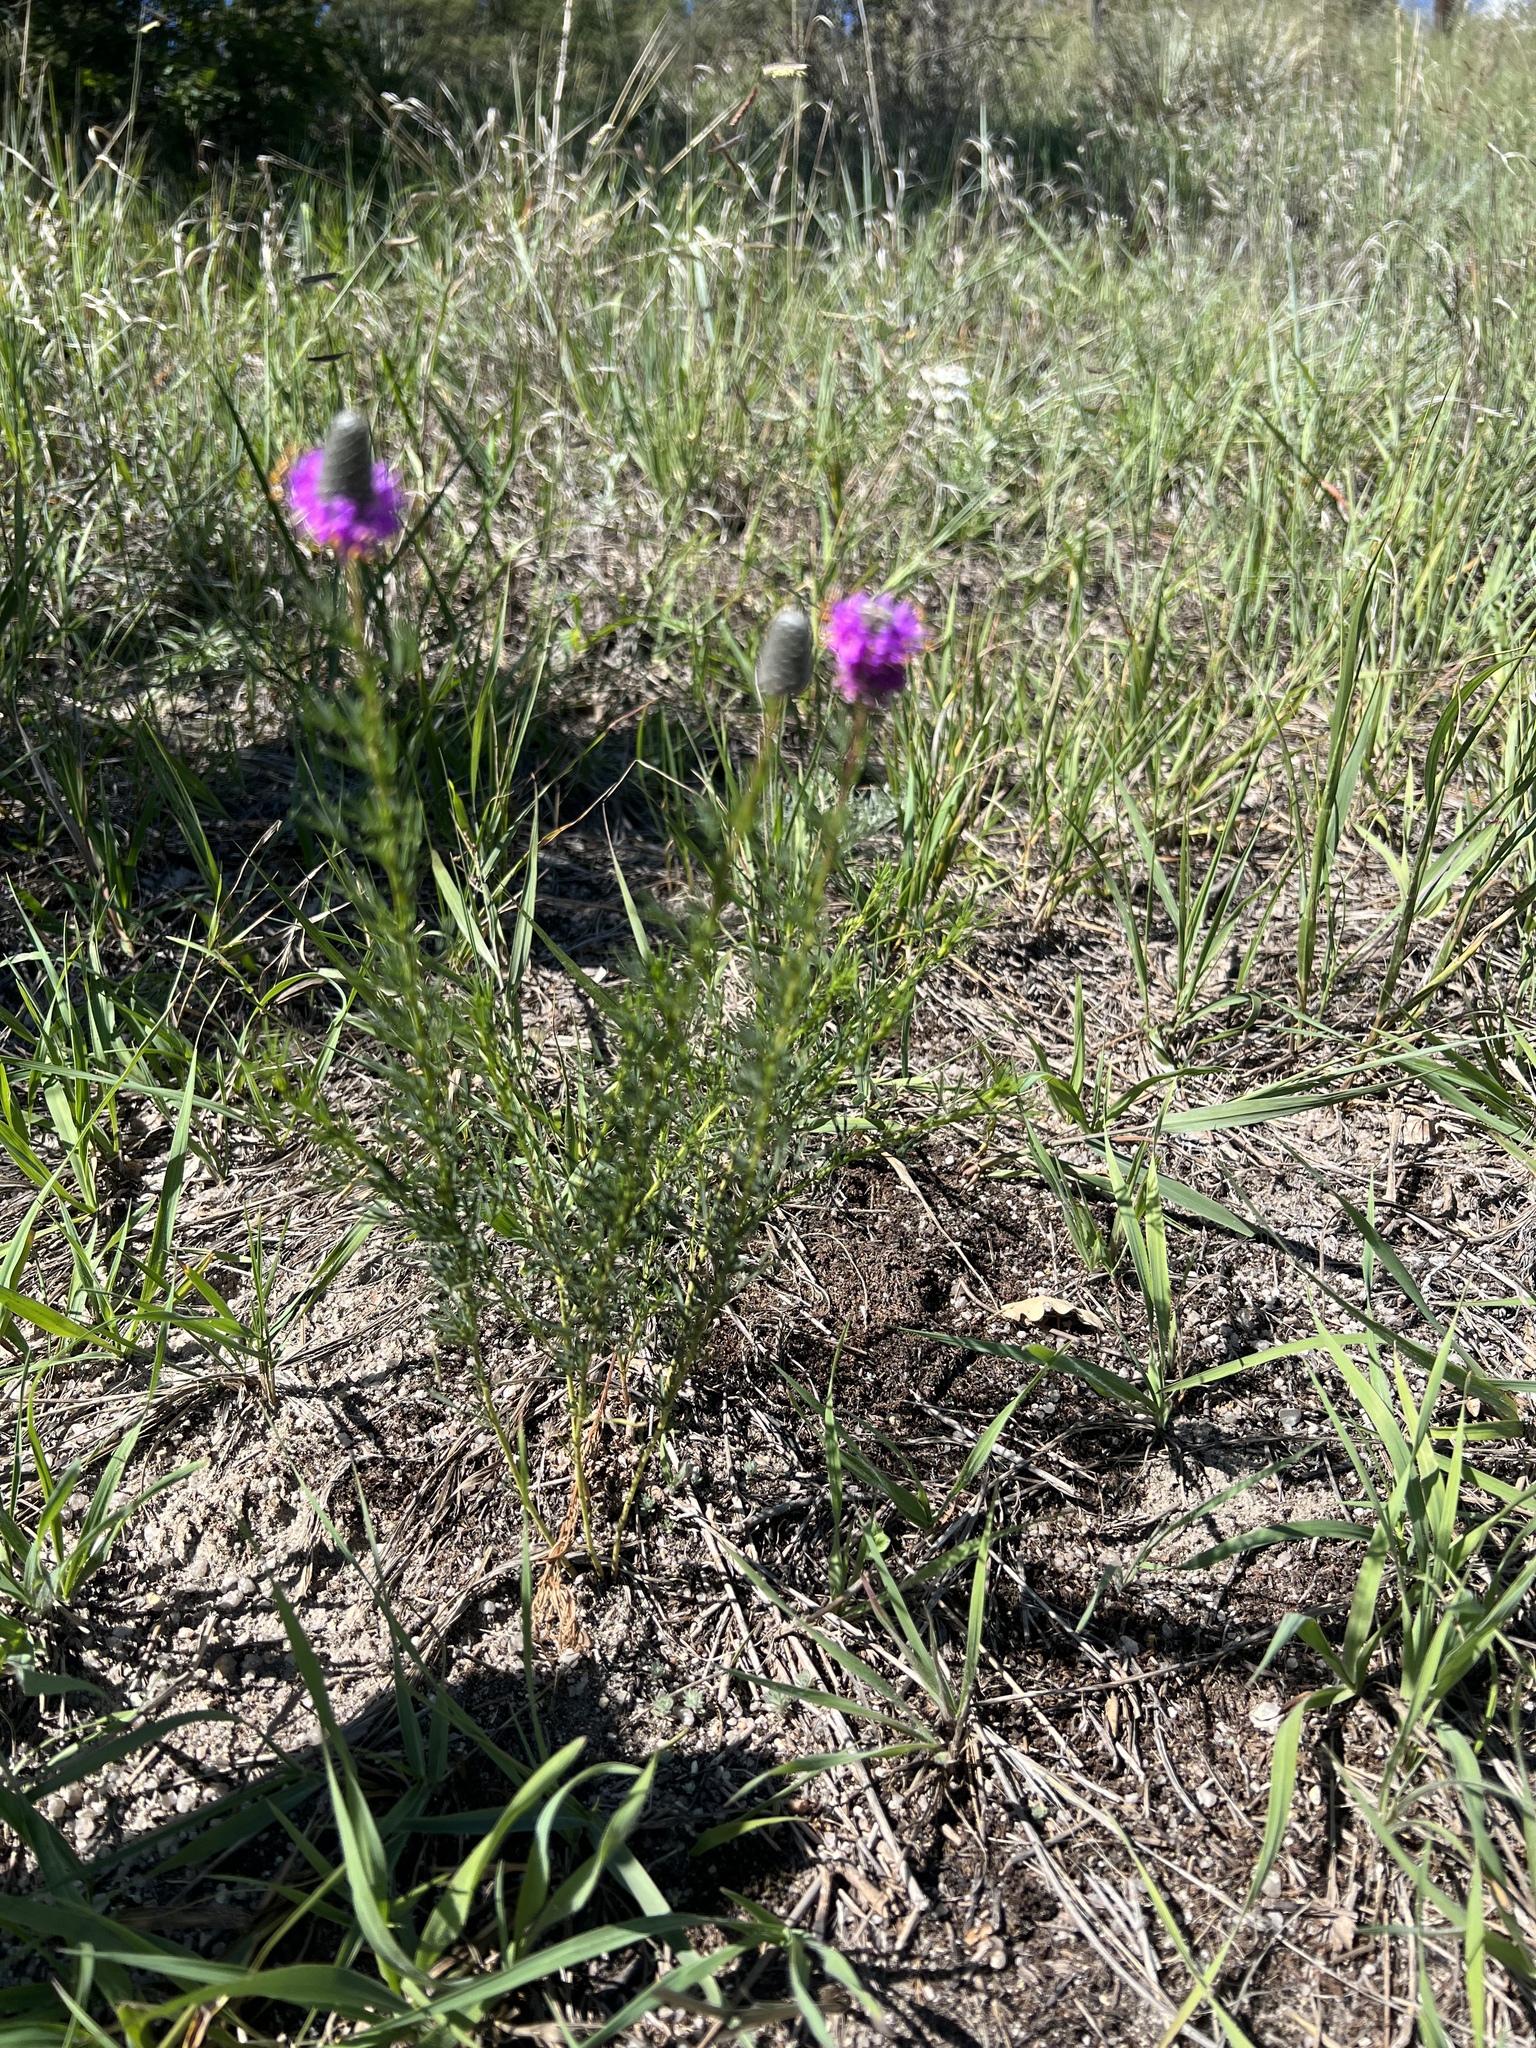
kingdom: Plantae
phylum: Tracheophyta
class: Magnoliopsida
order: Fabales
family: Fabaceae
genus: Dalea
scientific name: Dalea purpurea
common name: Purple prairie-clover
